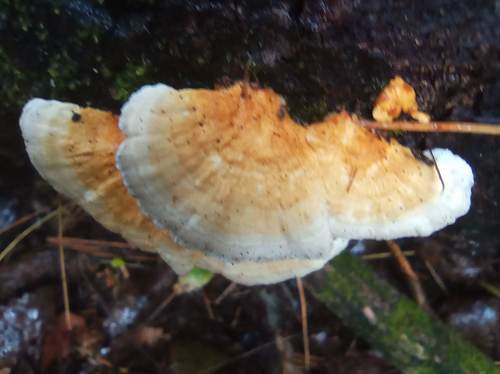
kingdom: Fungi
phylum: Basidiomycota
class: Agaricomycetes
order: Polyporales
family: Polyporaceae
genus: Trametes
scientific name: Trametes ochracea
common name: Ochre bracket
